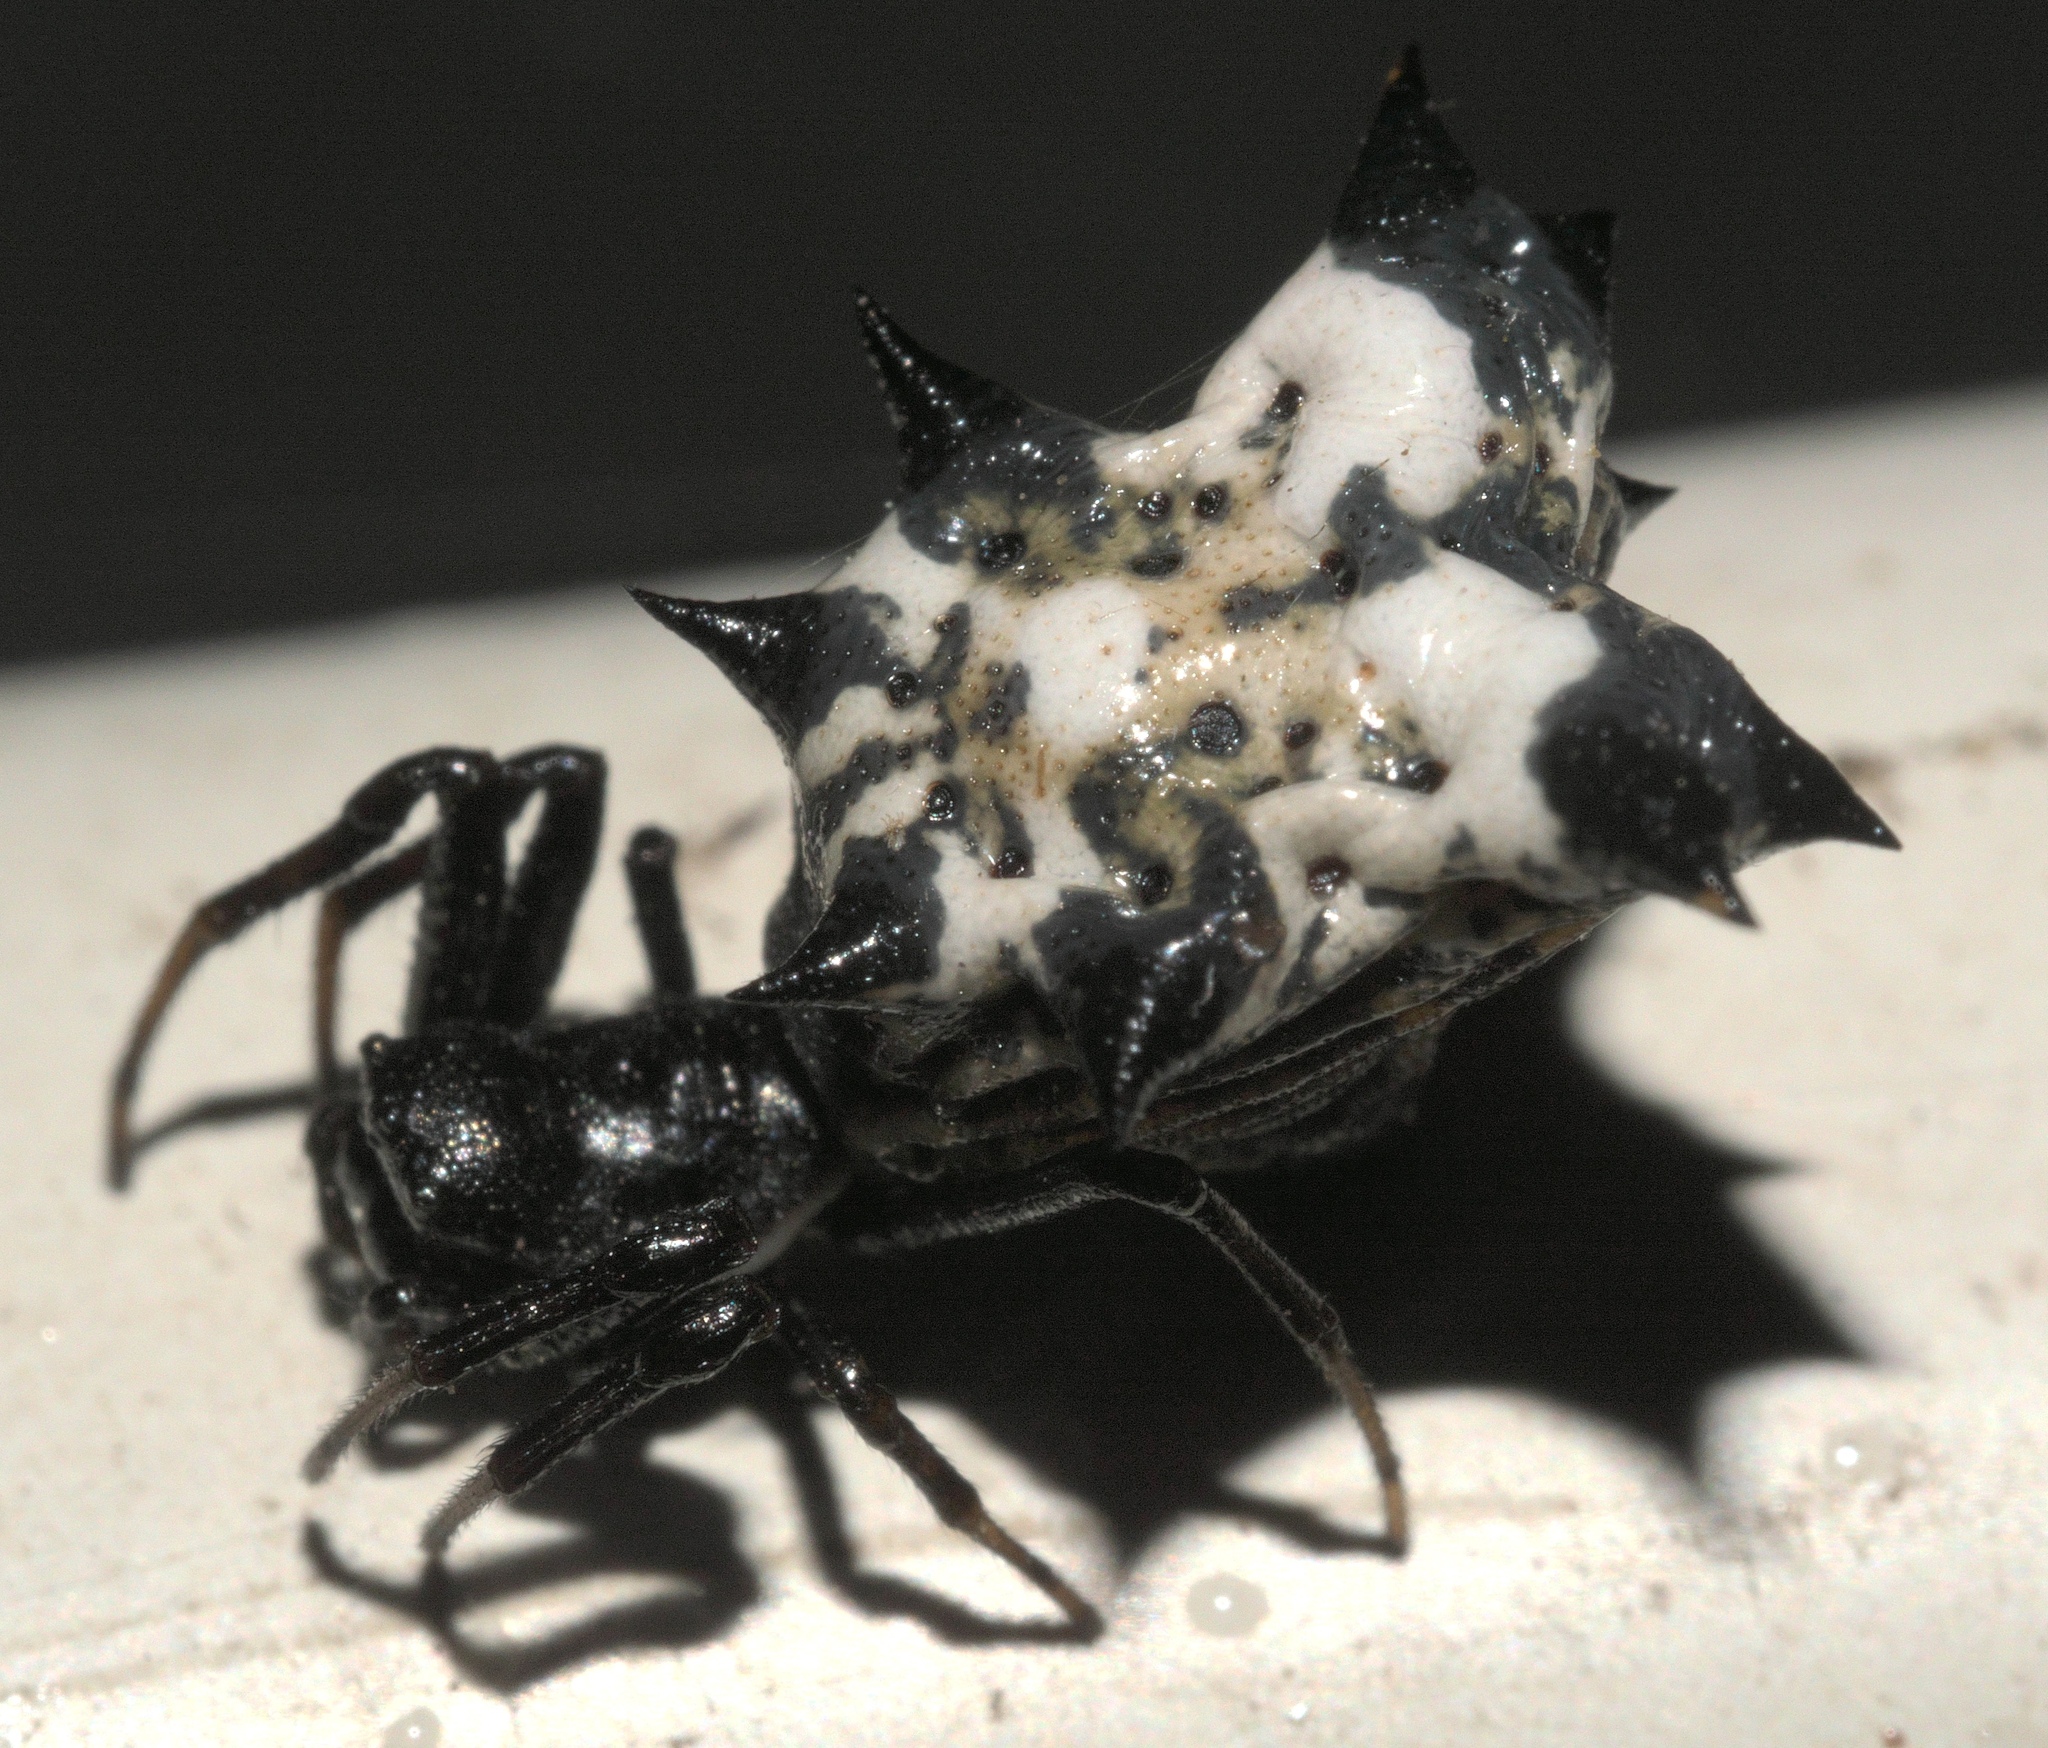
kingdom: Animalia
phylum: Arthropoda
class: Arachnida
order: Araneae
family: Araneidae
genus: Micrathena
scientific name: Micrathena gracilis
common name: Orb weavers
